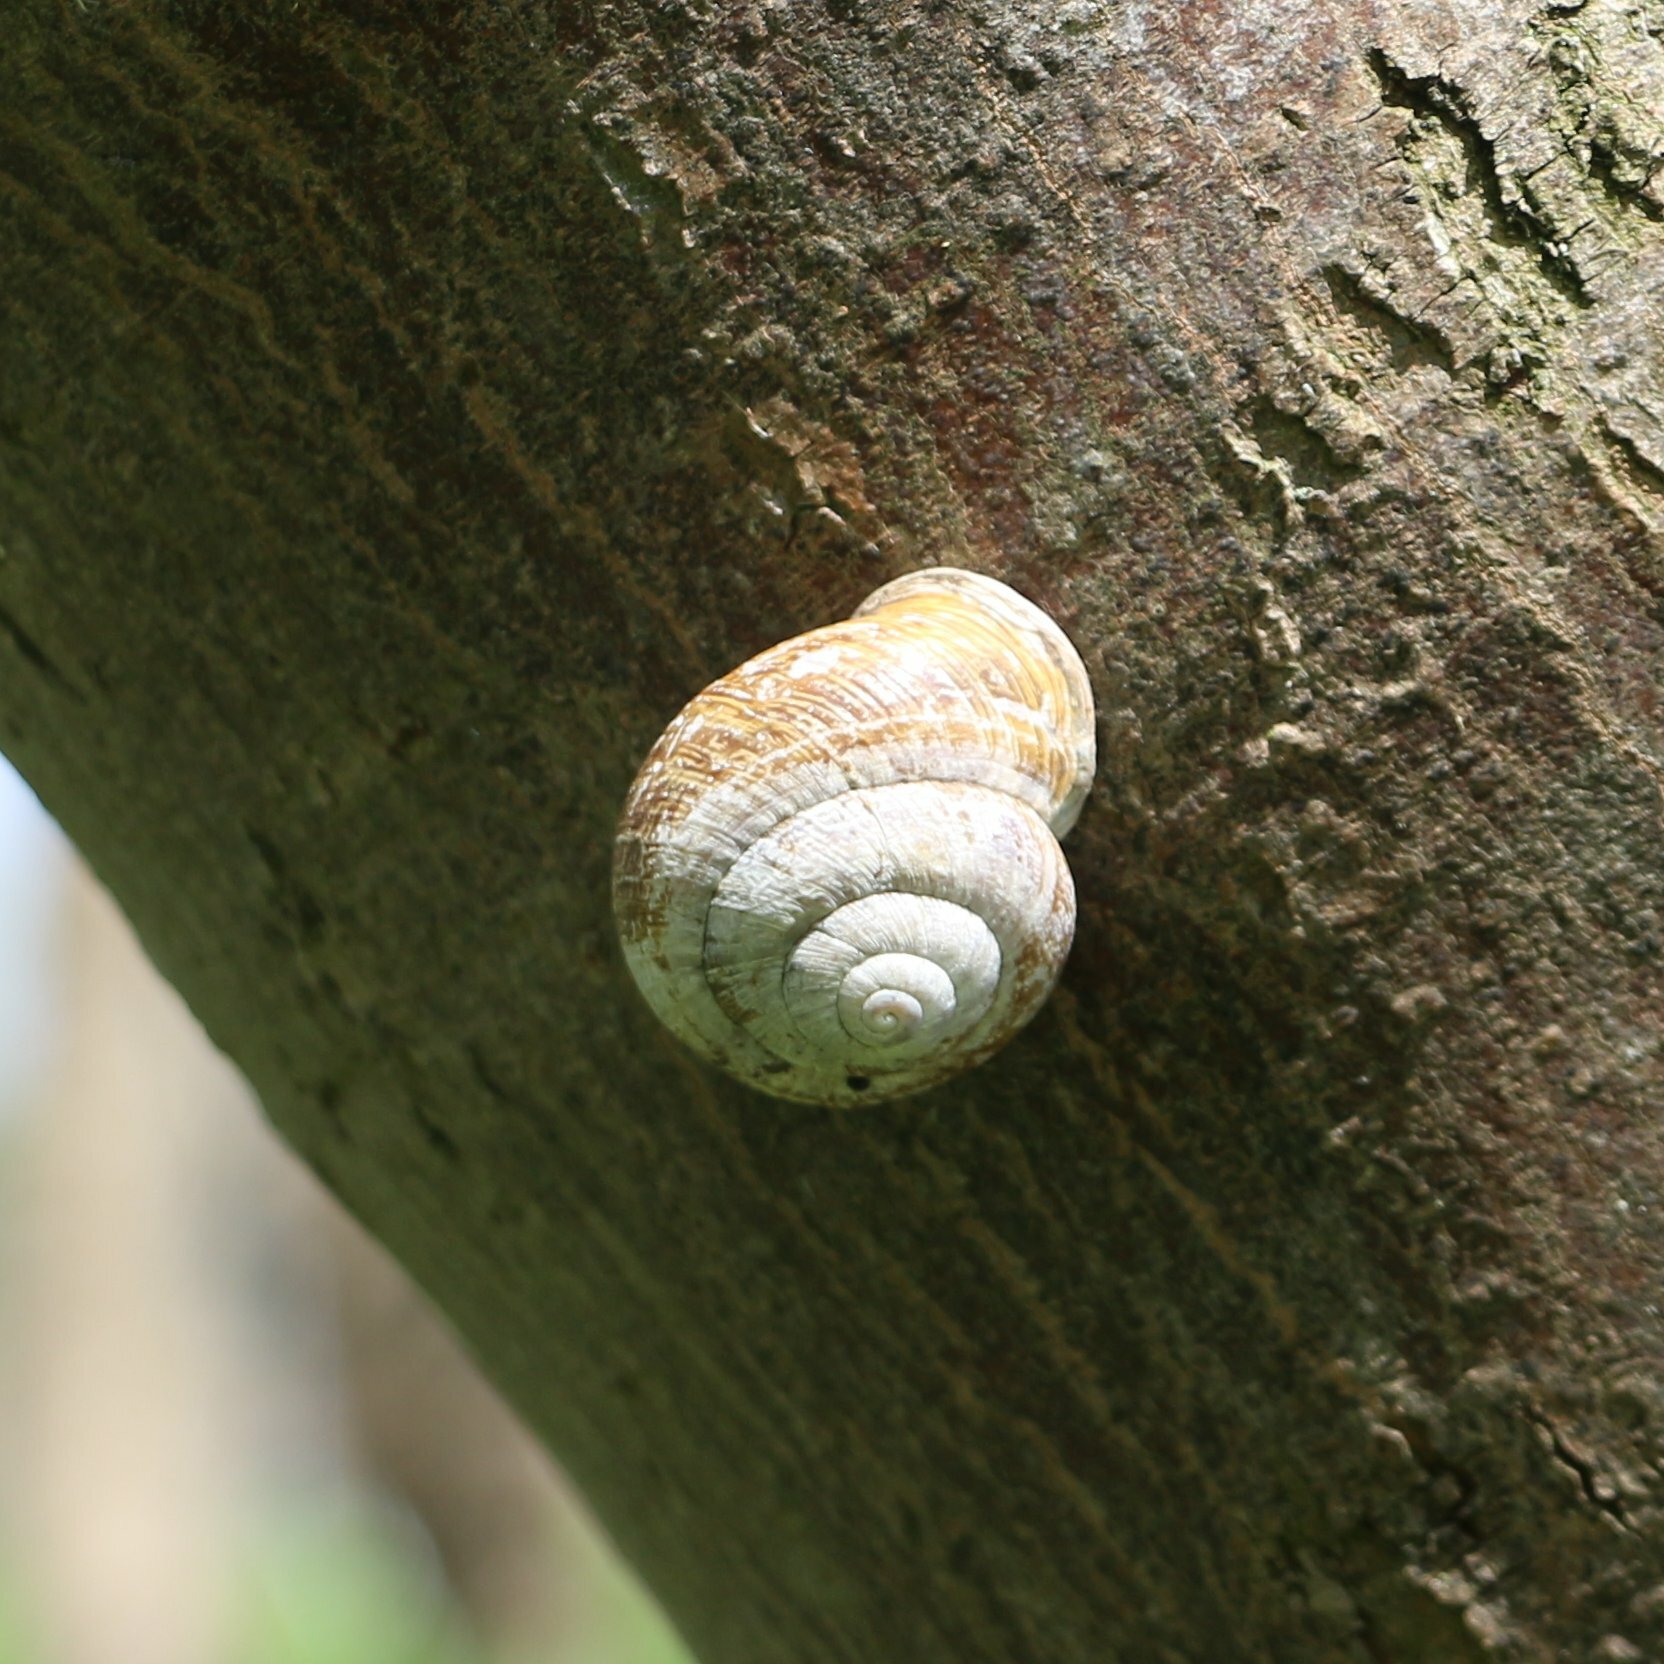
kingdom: Animalia
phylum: Mollusca
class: Gastropoda
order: Stylommatophora
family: Helicidae
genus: Caucasotachea
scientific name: Caucasotachea atrolabiata
